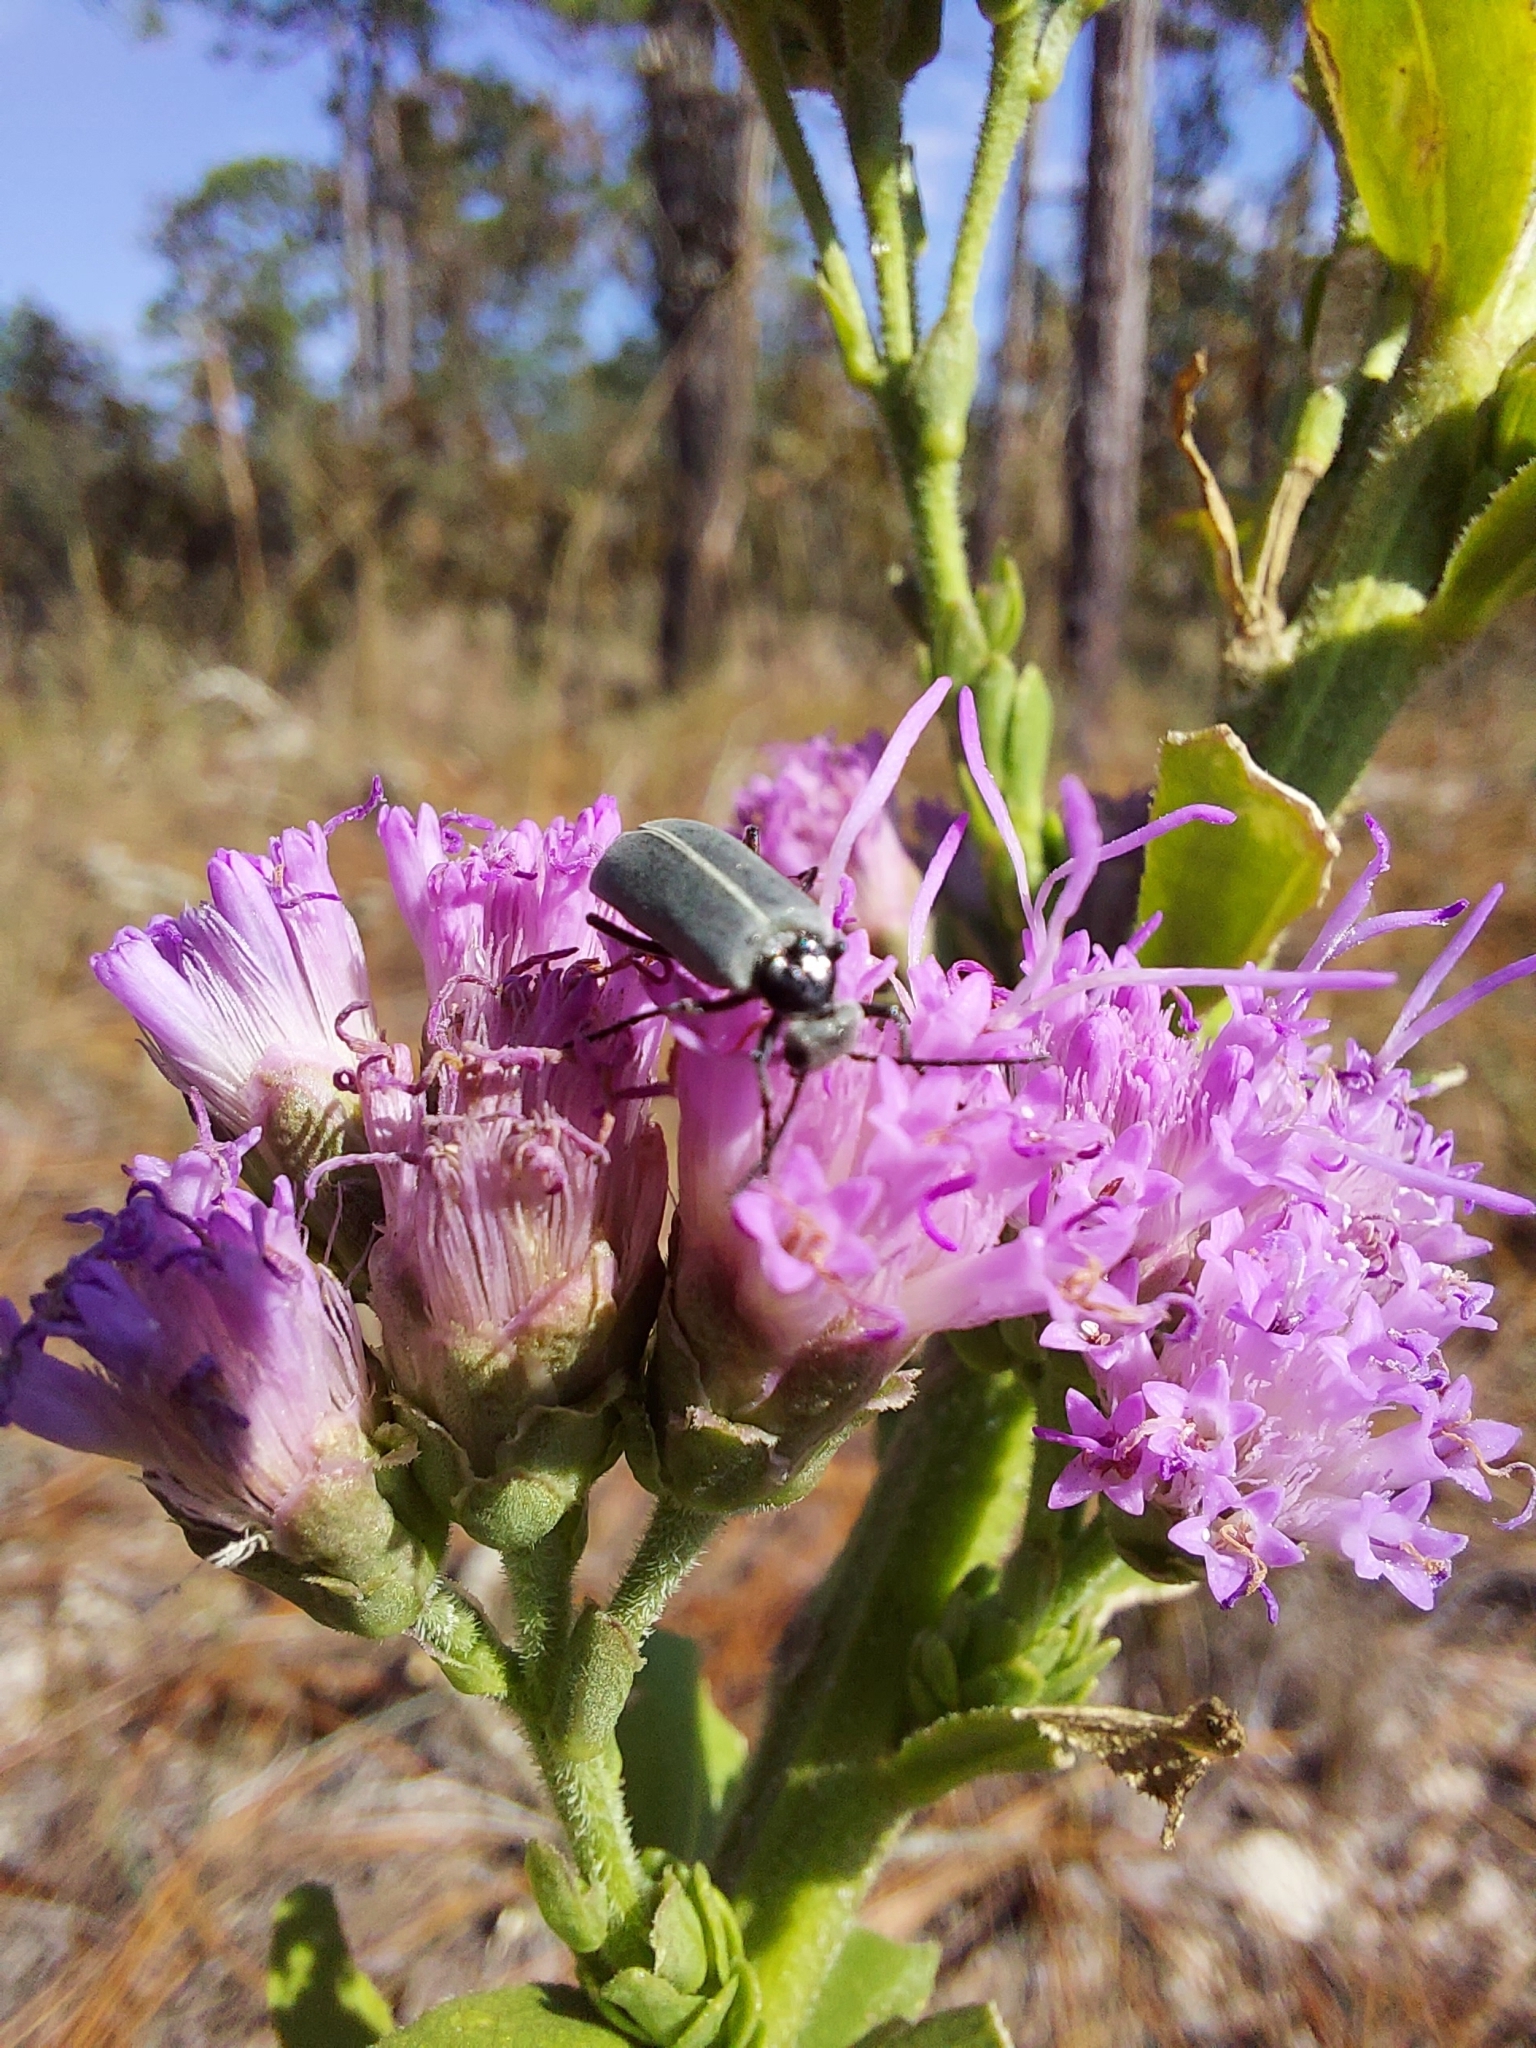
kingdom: Animalia
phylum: Arthropoda
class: Insecta
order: Coleoptera
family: Meloidae
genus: Epicauta
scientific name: Epicauta heterodera
